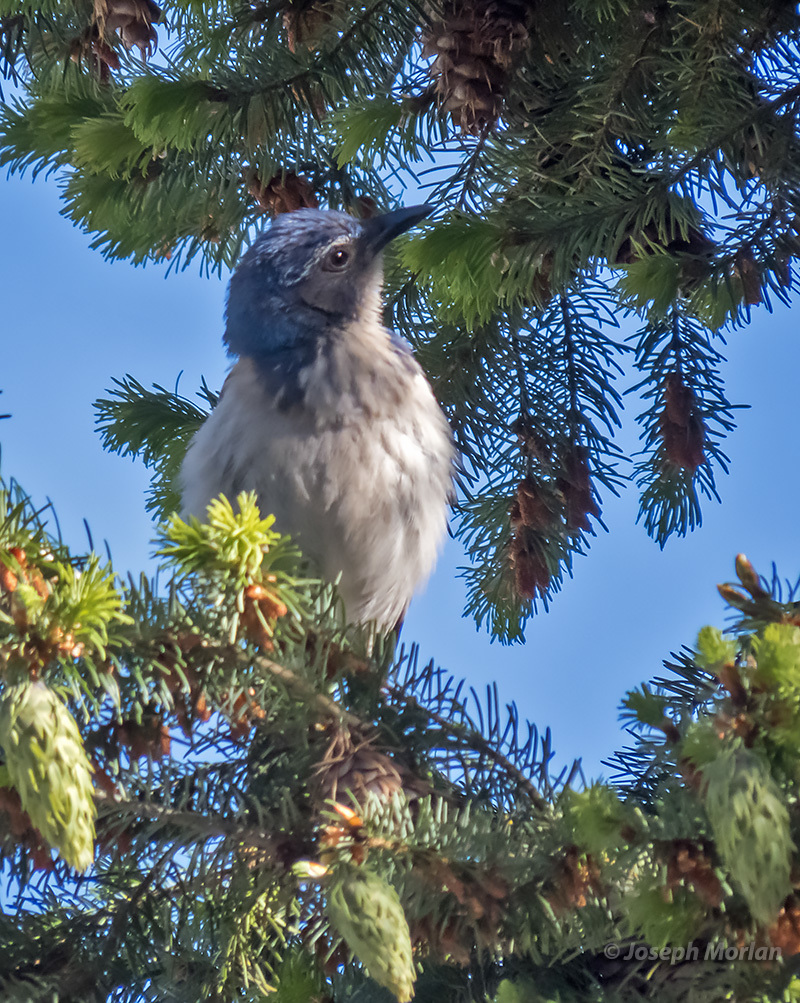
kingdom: Animalia
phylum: Chordata
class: Aves
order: Passeriformes
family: Corvidae
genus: Aphelocoma
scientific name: Aphelocoma californica
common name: California scrub-jay
